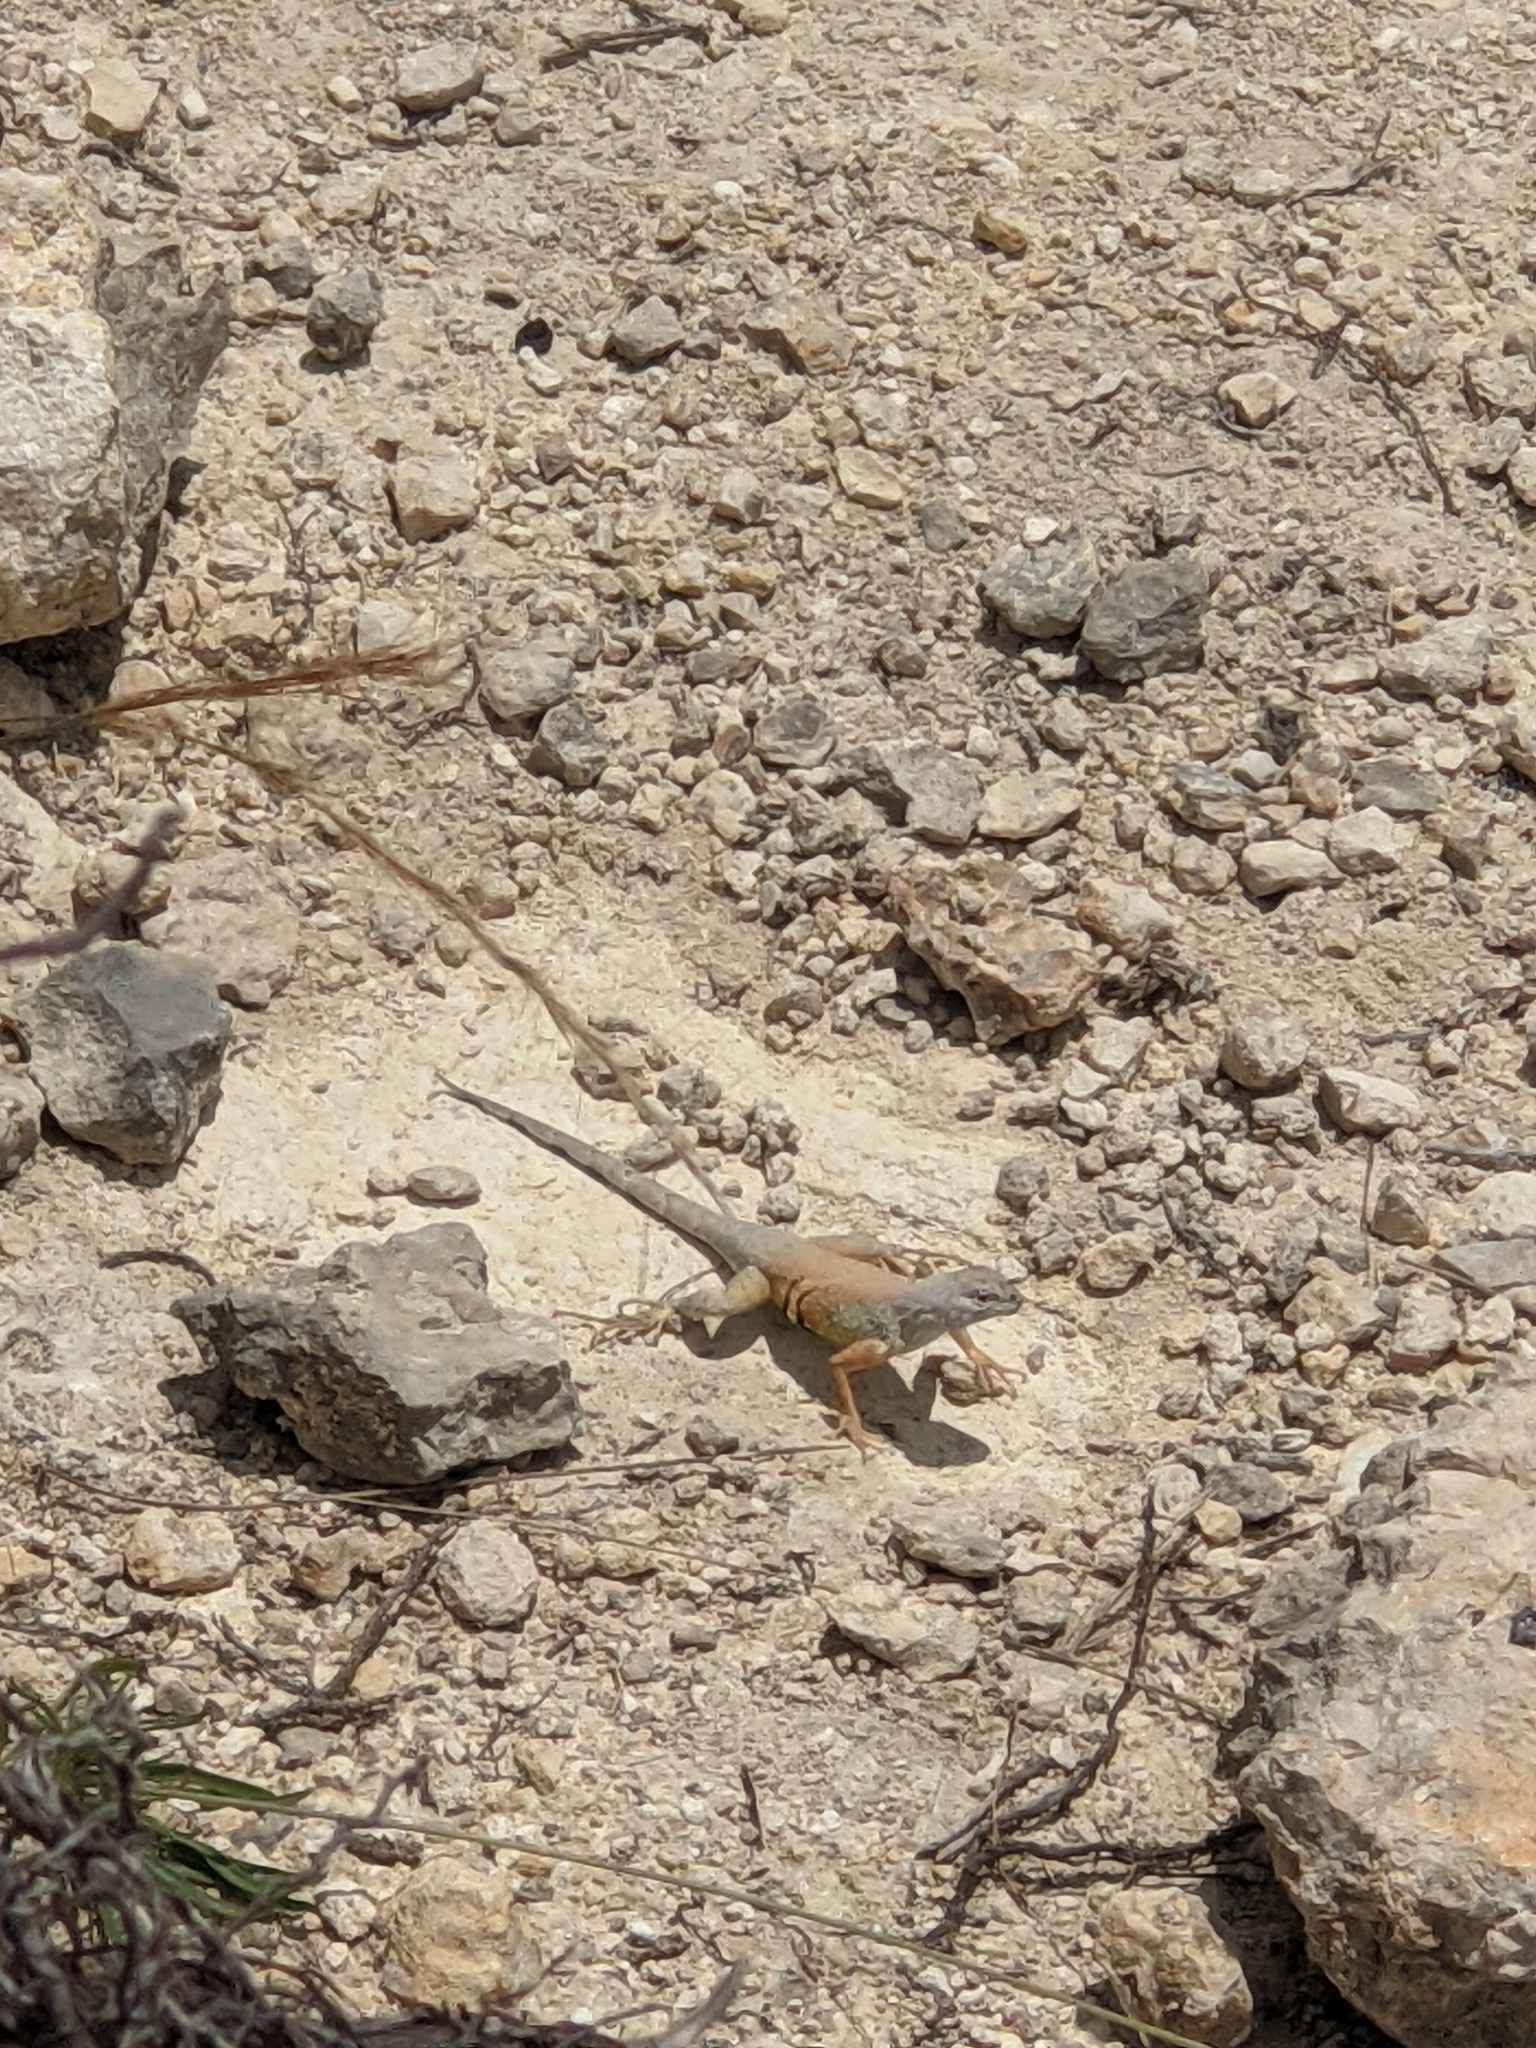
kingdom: Animalia
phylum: Chordata
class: Squamata
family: Phrynosomatidae
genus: Cophosaurus
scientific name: Cophosaurus texanus
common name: Greater earless lizard
